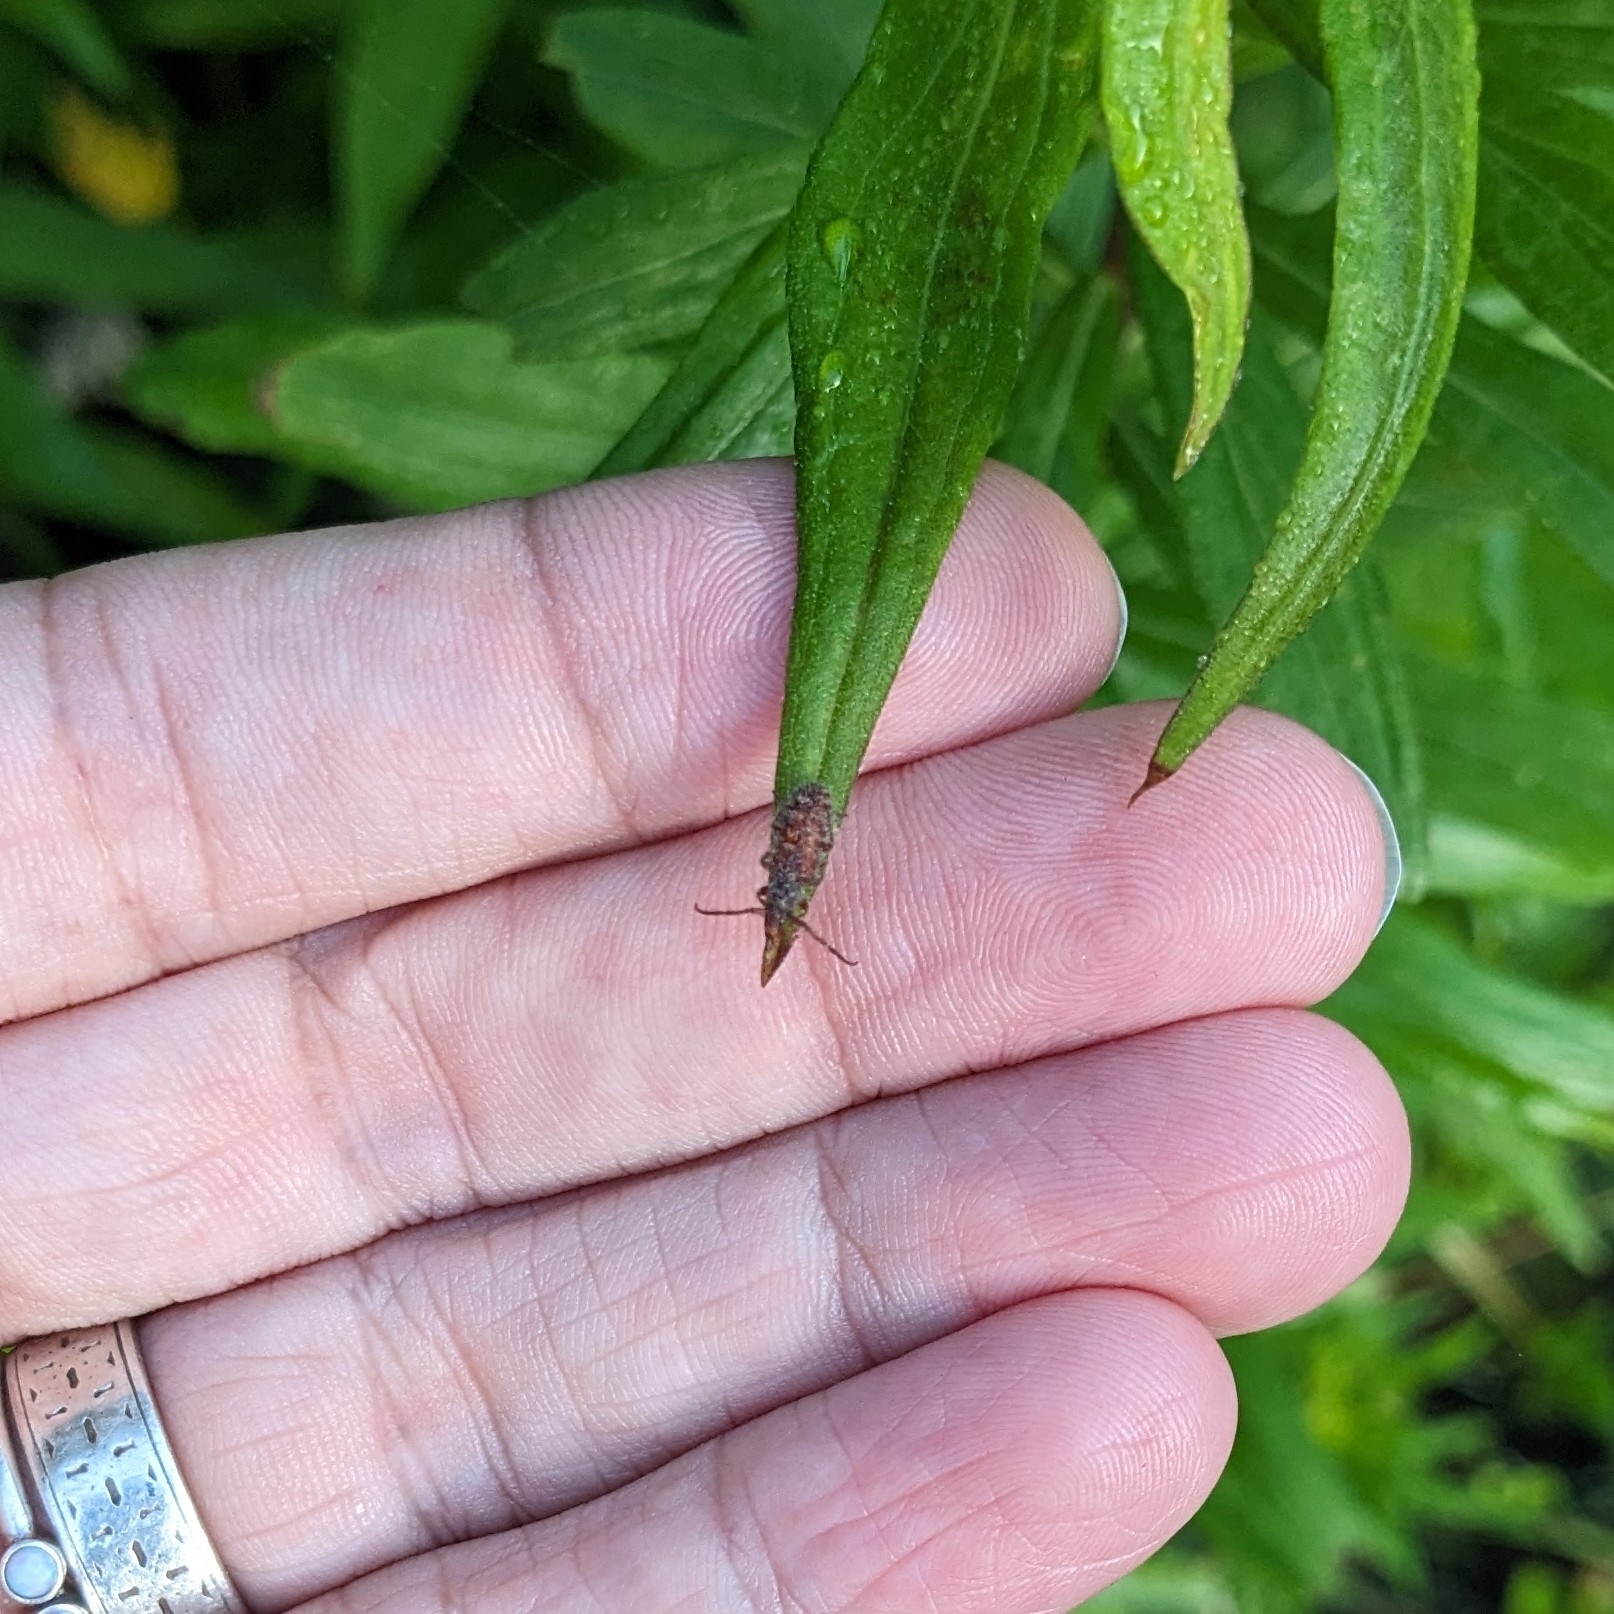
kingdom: Animalia
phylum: Arthropoda
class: Insecta
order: Coleoptera
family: Cerambycidae
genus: Eupogonius
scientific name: Eupogonius tomentosus
